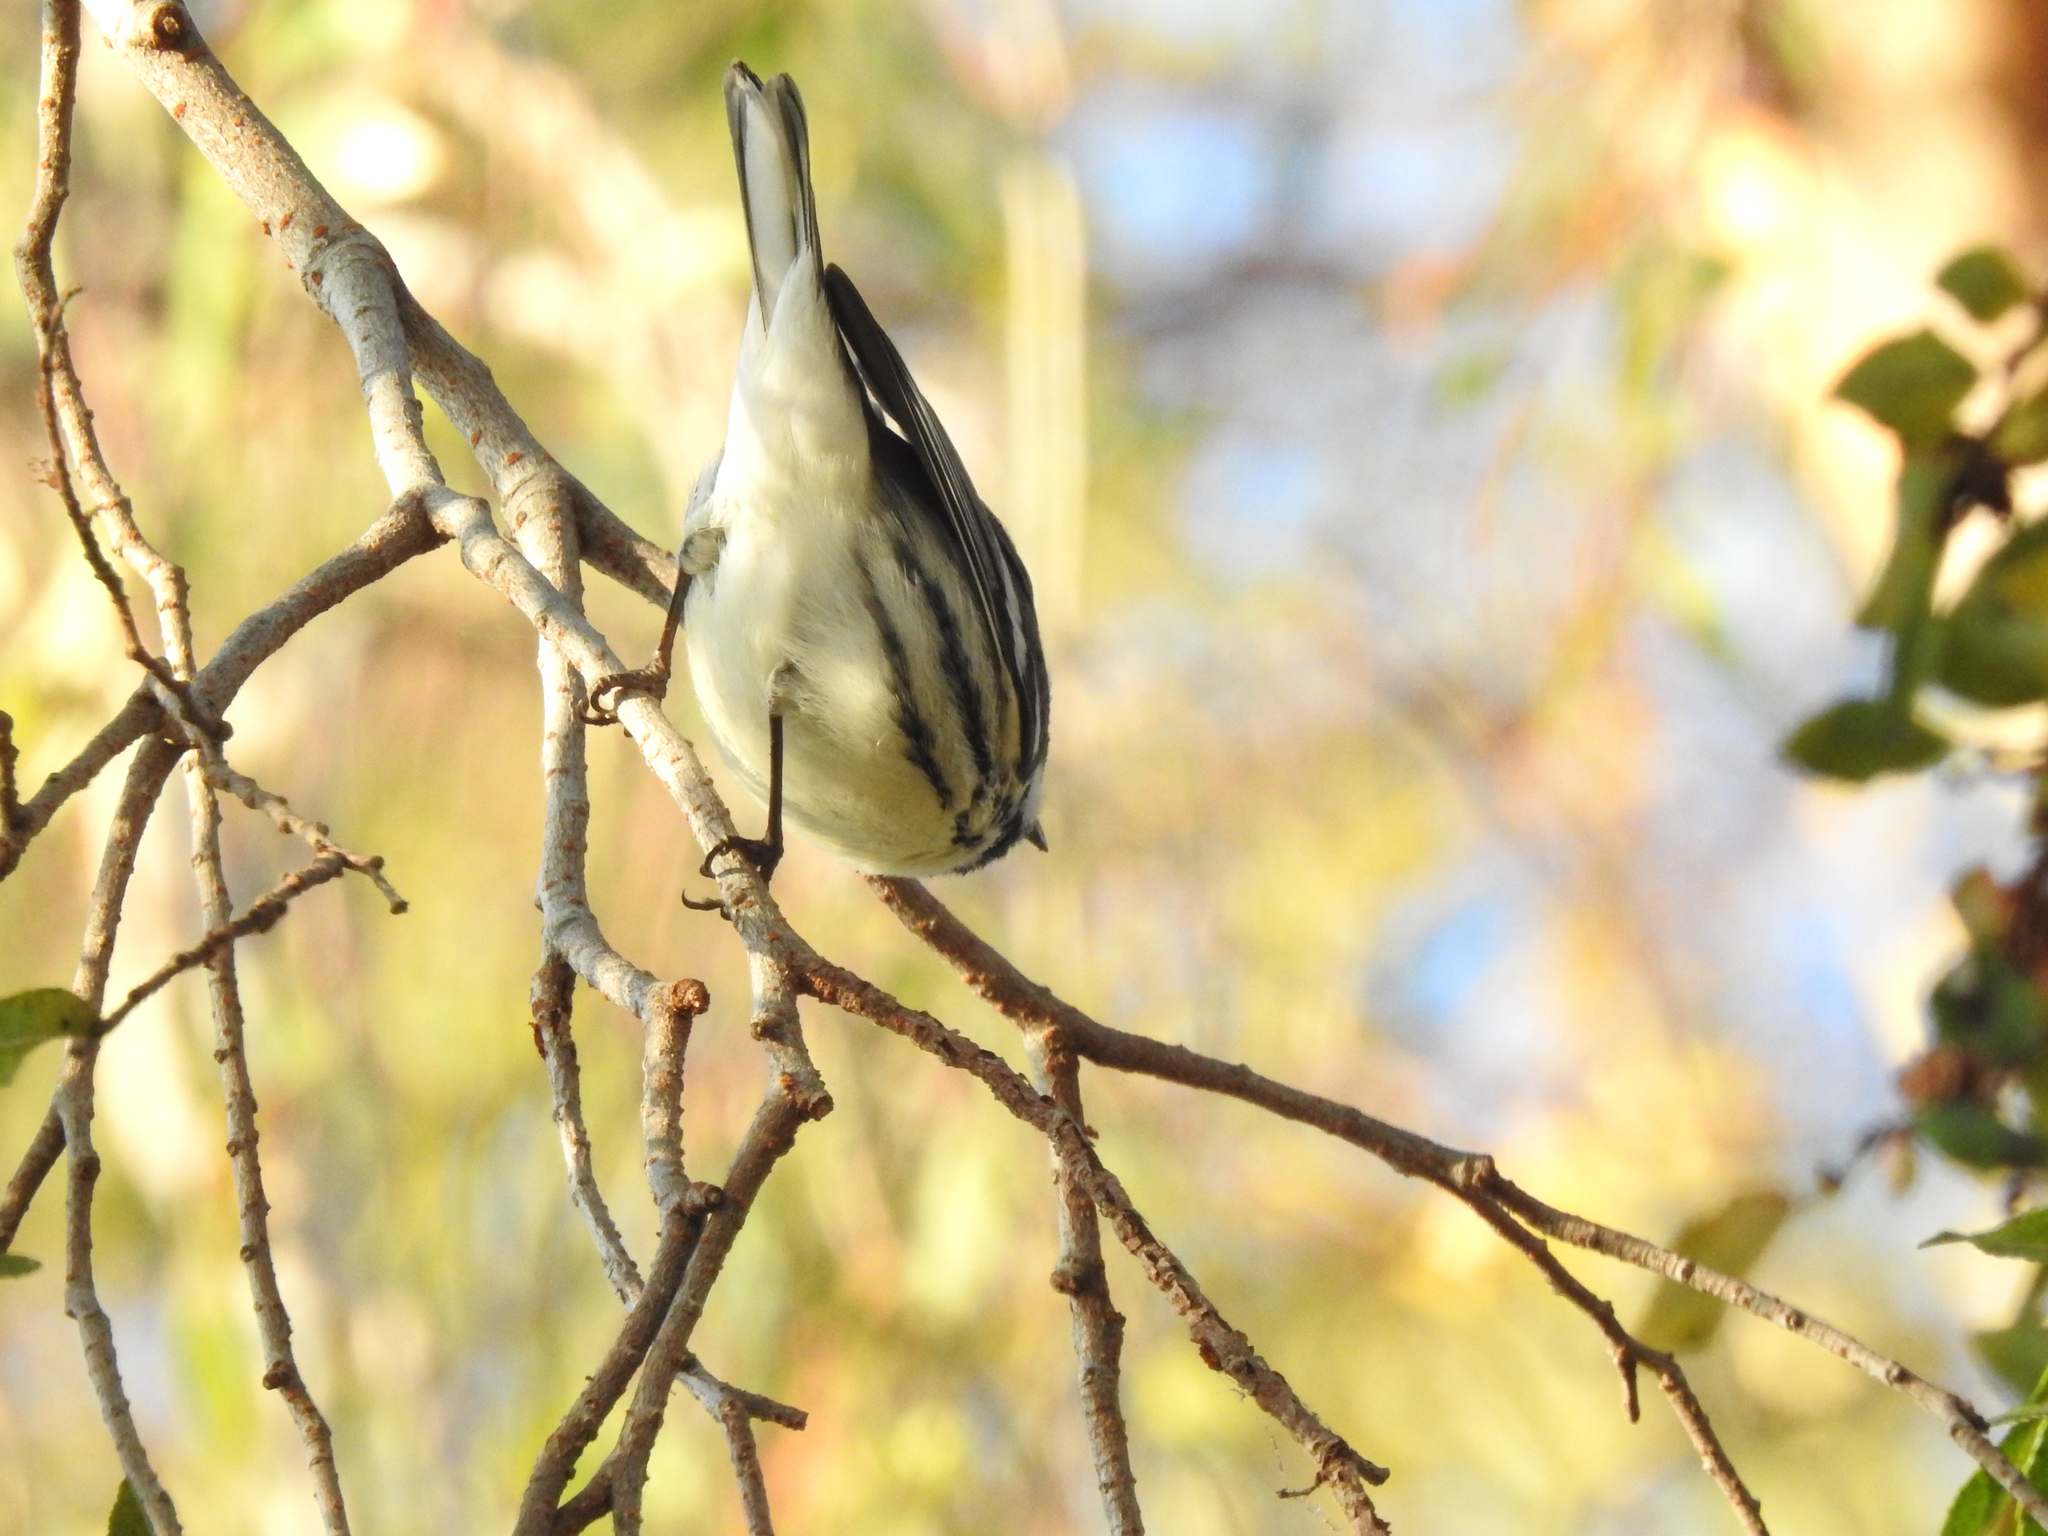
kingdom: Animalia
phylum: Chordata
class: Aves
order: Passeriformes
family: Parulidae
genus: Setophaga
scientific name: Setophaga nigrescens
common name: Black-throated gray warbler
